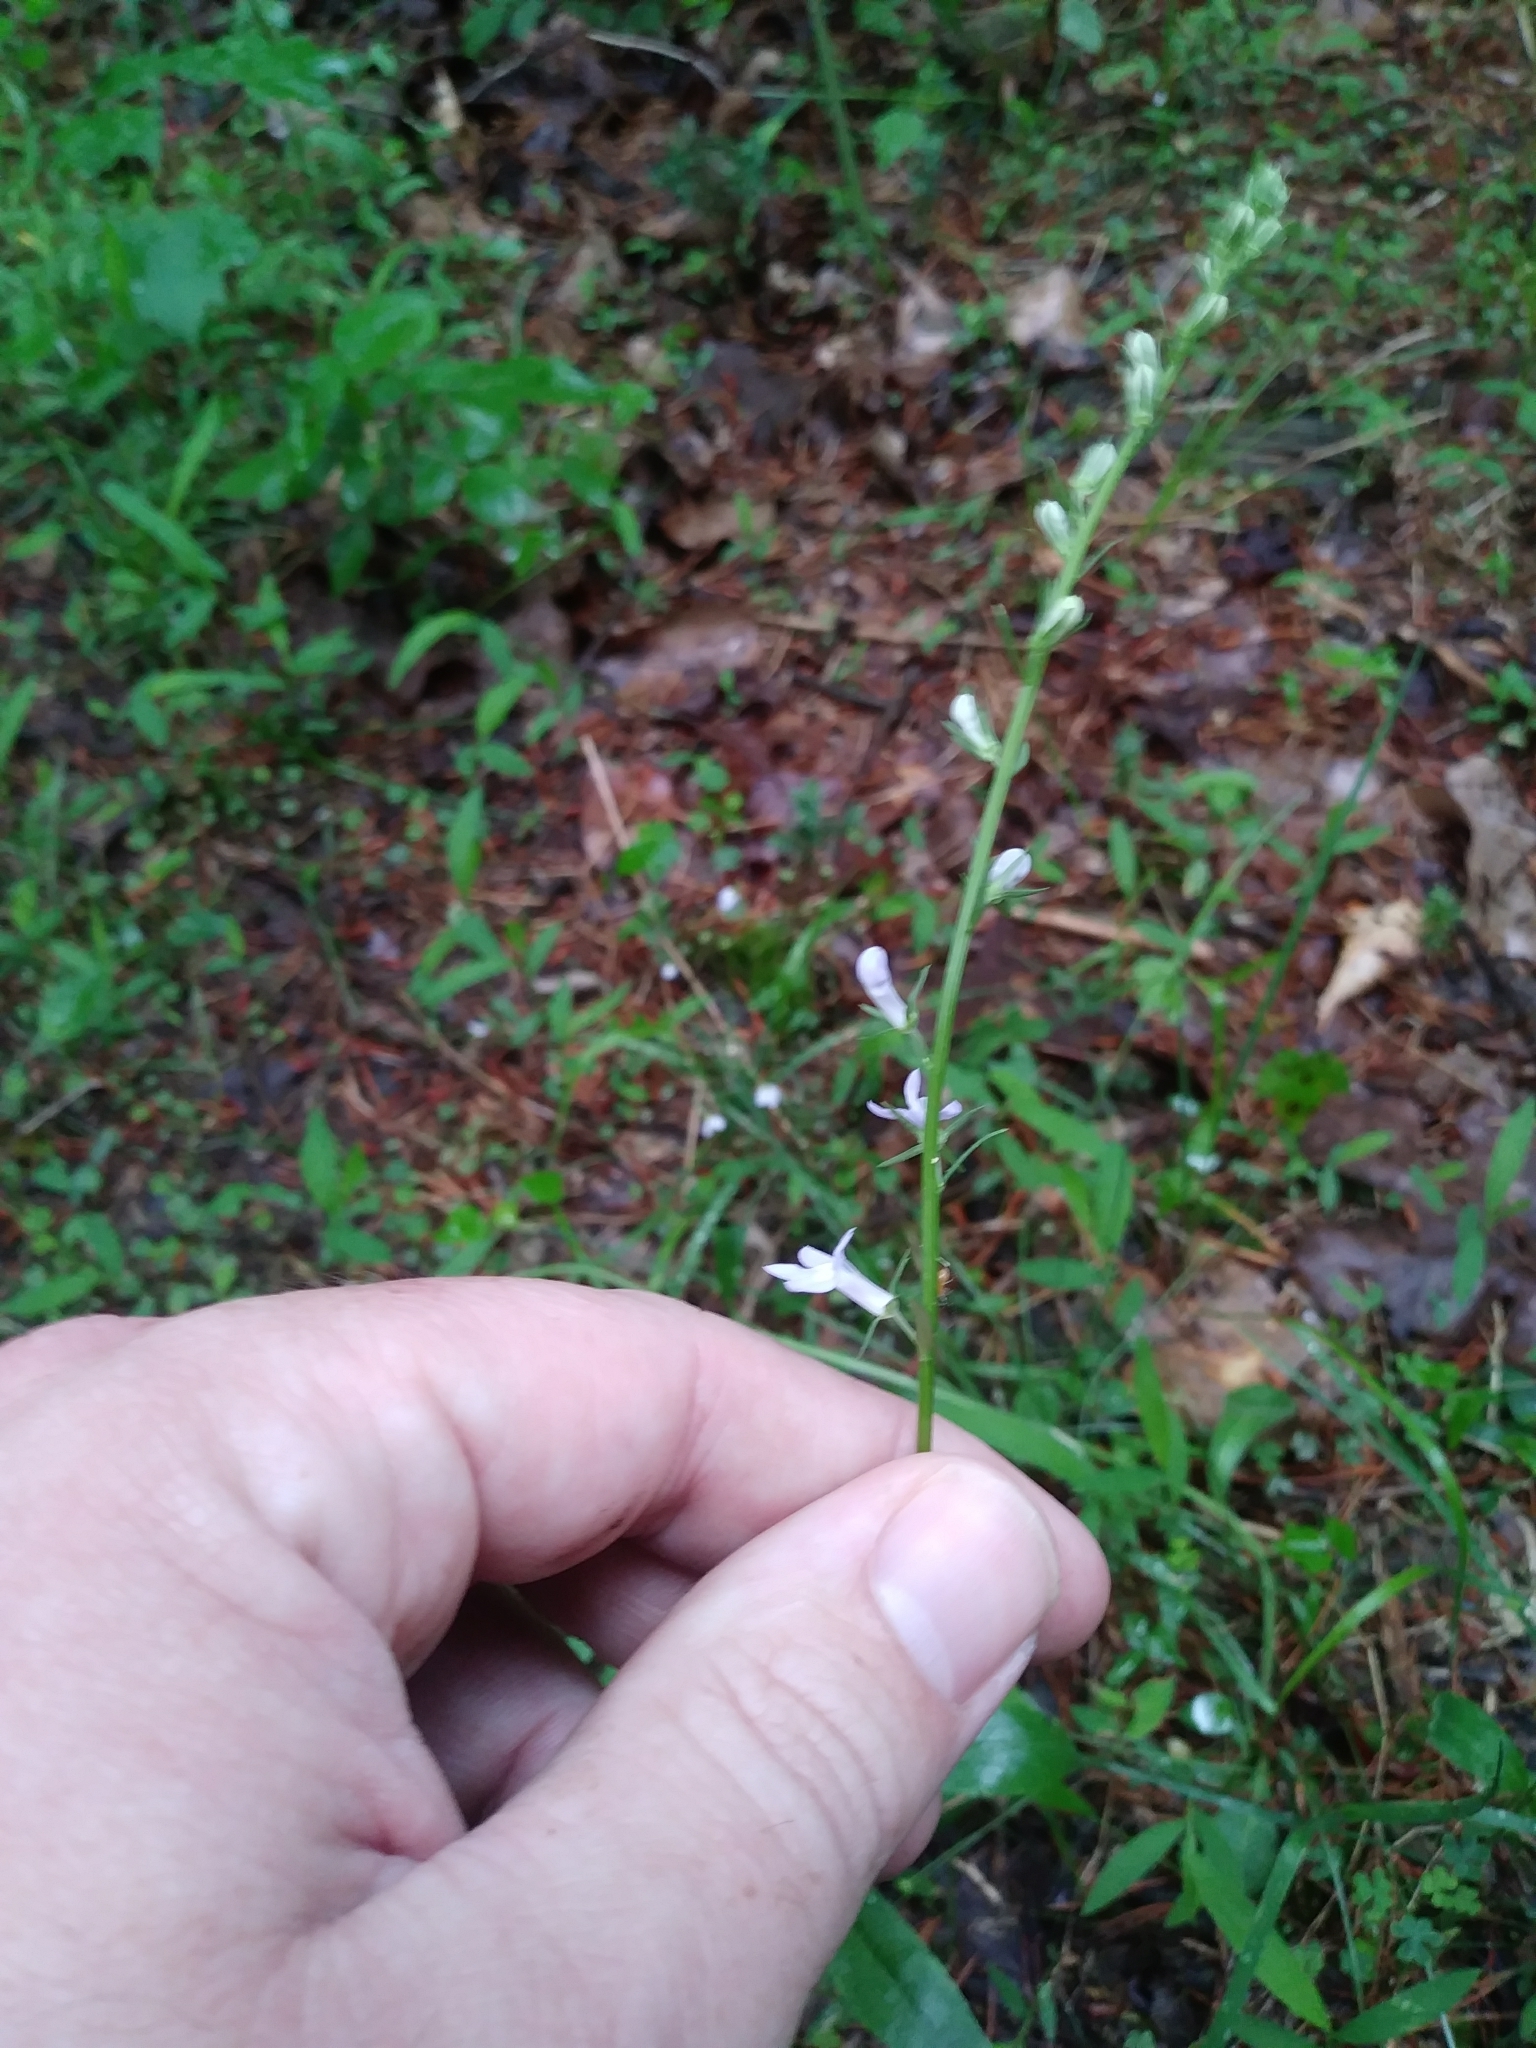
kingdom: Plantae
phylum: Tracheophyta
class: Magnoliopsida
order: Asterales
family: Campanulaceae
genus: Lobelia
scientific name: Lobelia spicata
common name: Pale-spike lobelia
